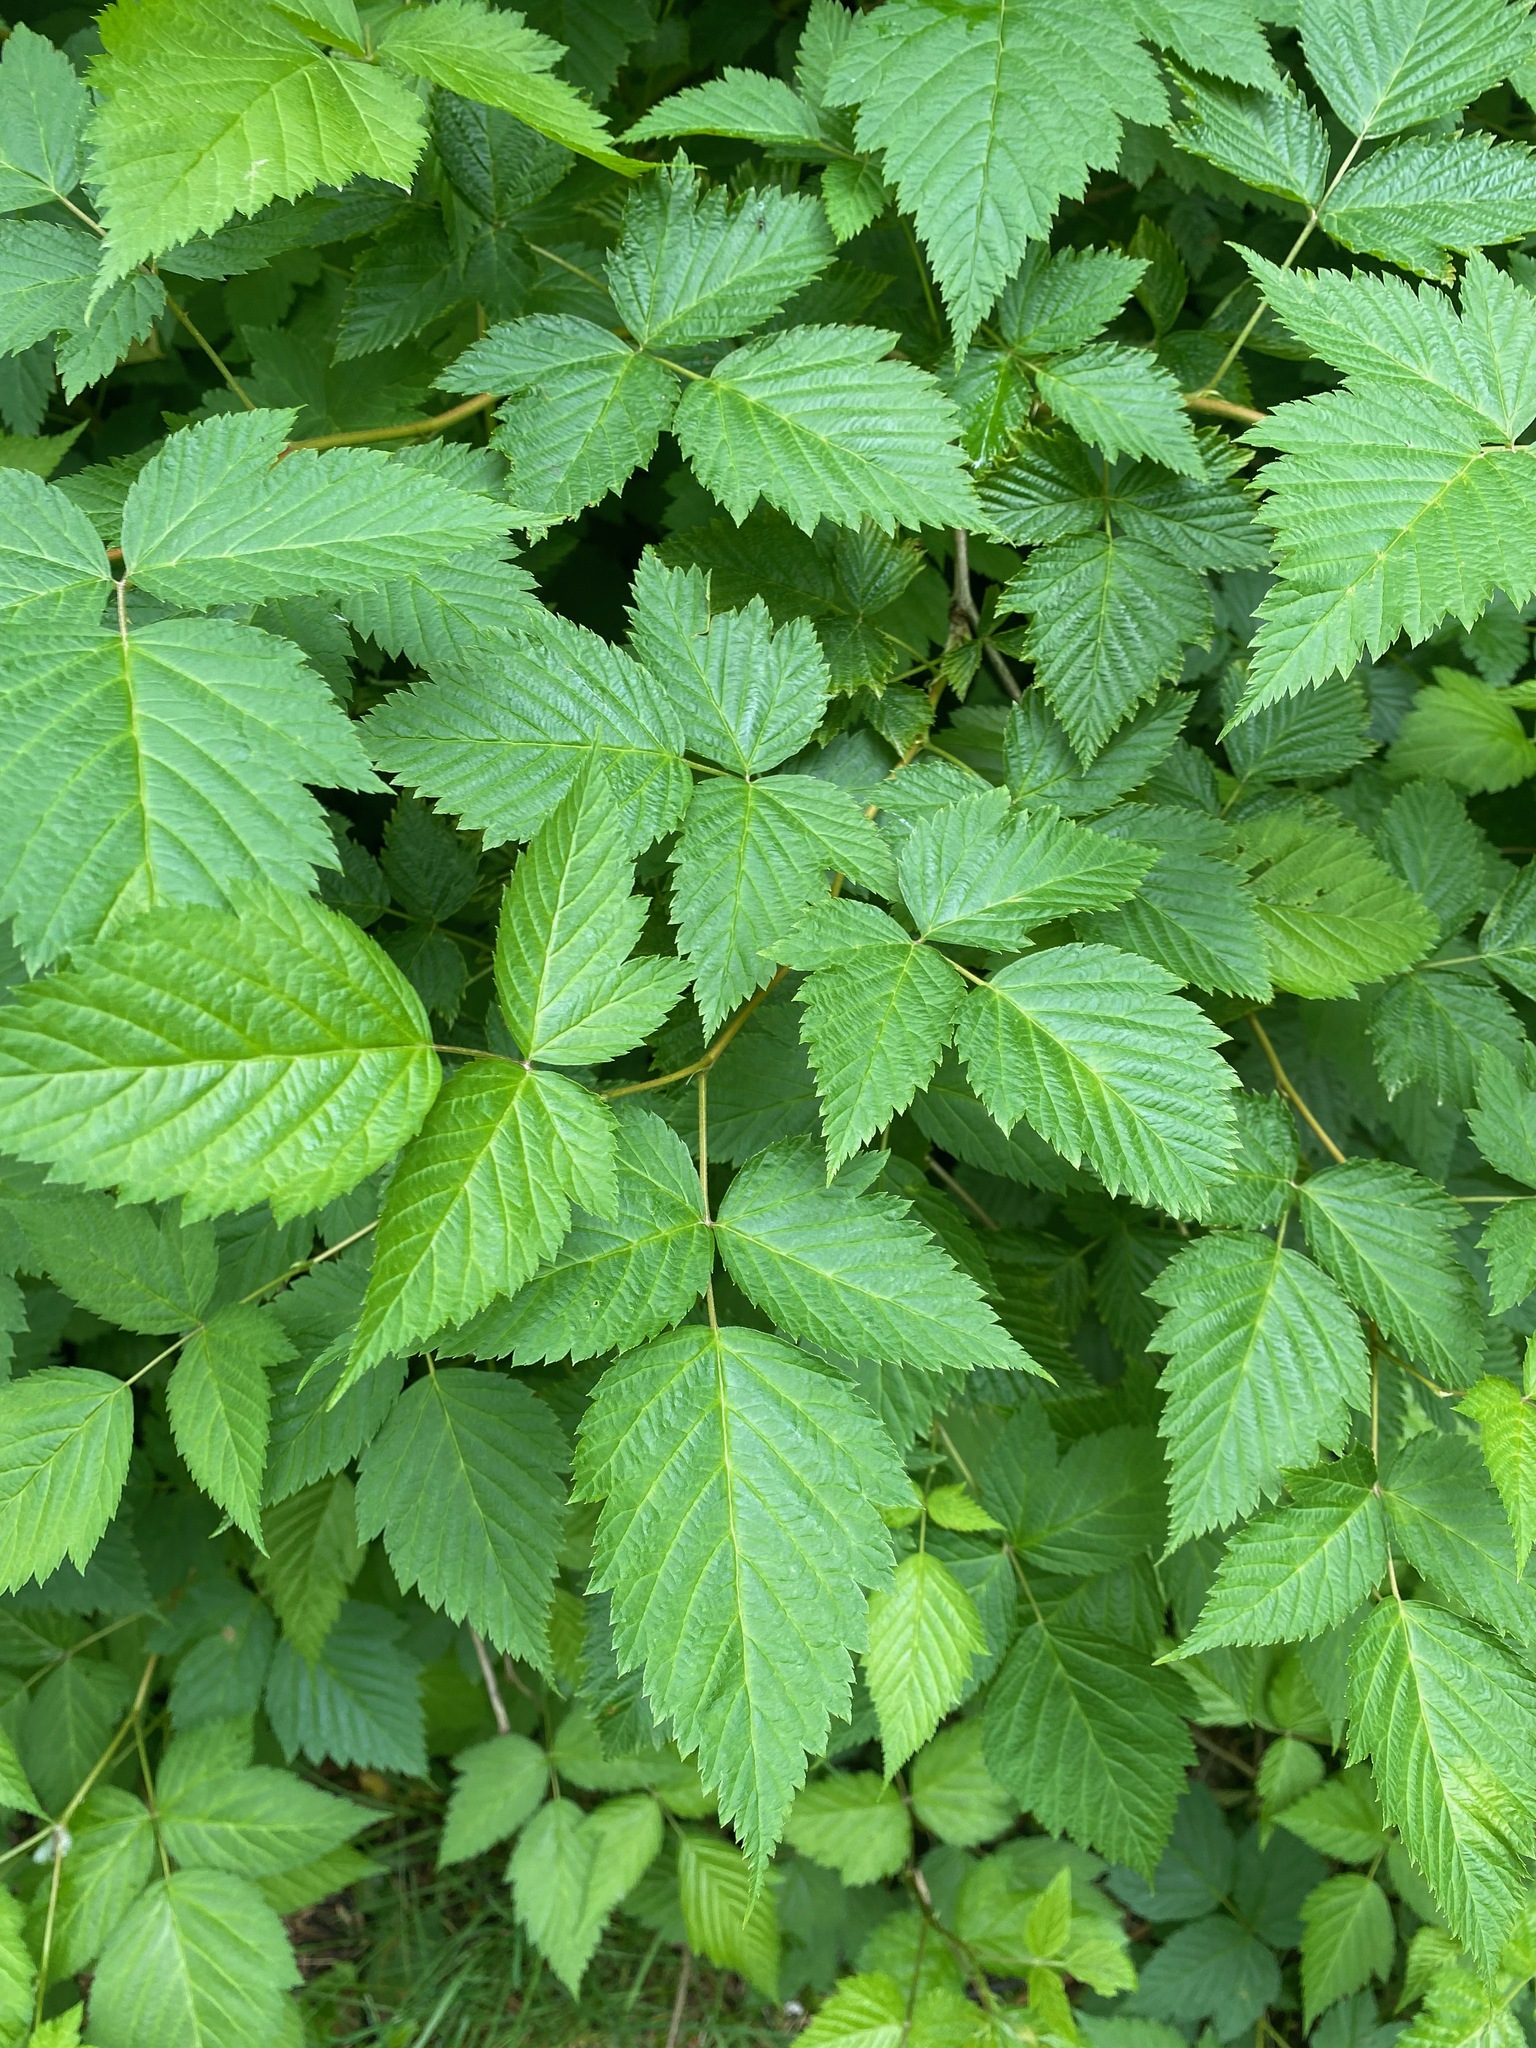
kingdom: Plantae
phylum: Tracheophyta
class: Magnoliopsida
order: Rosales
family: Rosaceae
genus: Rubus
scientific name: Rubus spectabilis
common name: Salmonberry
